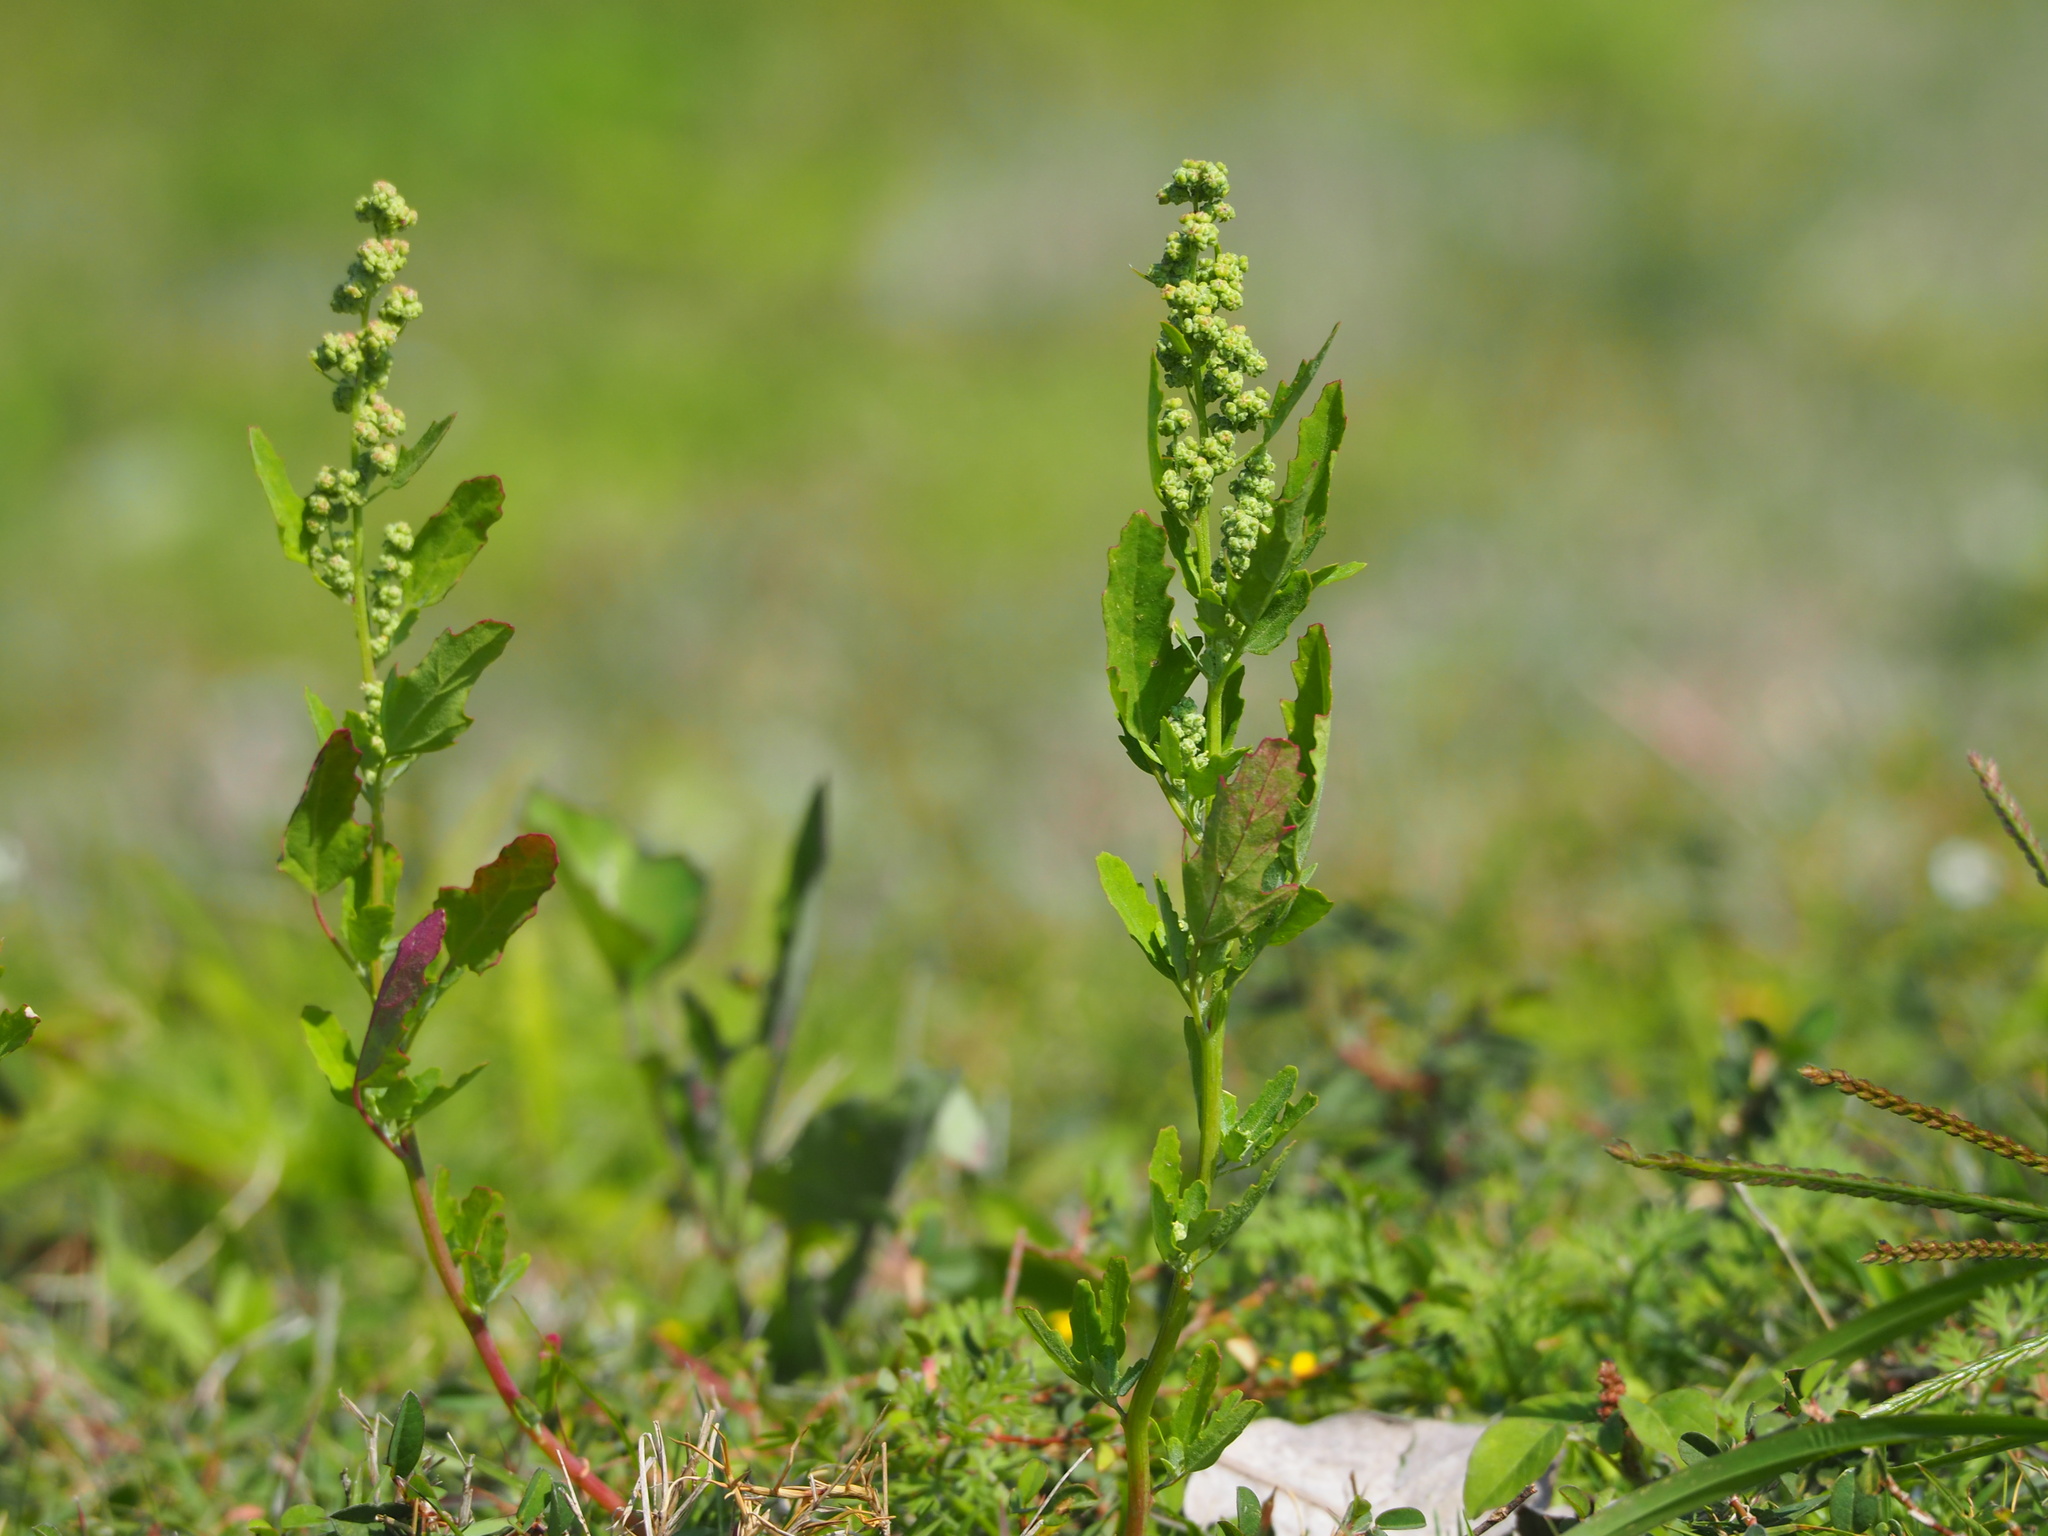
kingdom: Plantae
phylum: Tracheophyta
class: Magnoliopsida
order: Caryophyllales
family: Amaranthaceae
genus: Chenopodium
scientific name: Chenopodium ficifolium
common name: Fig-leaved goosefoot
